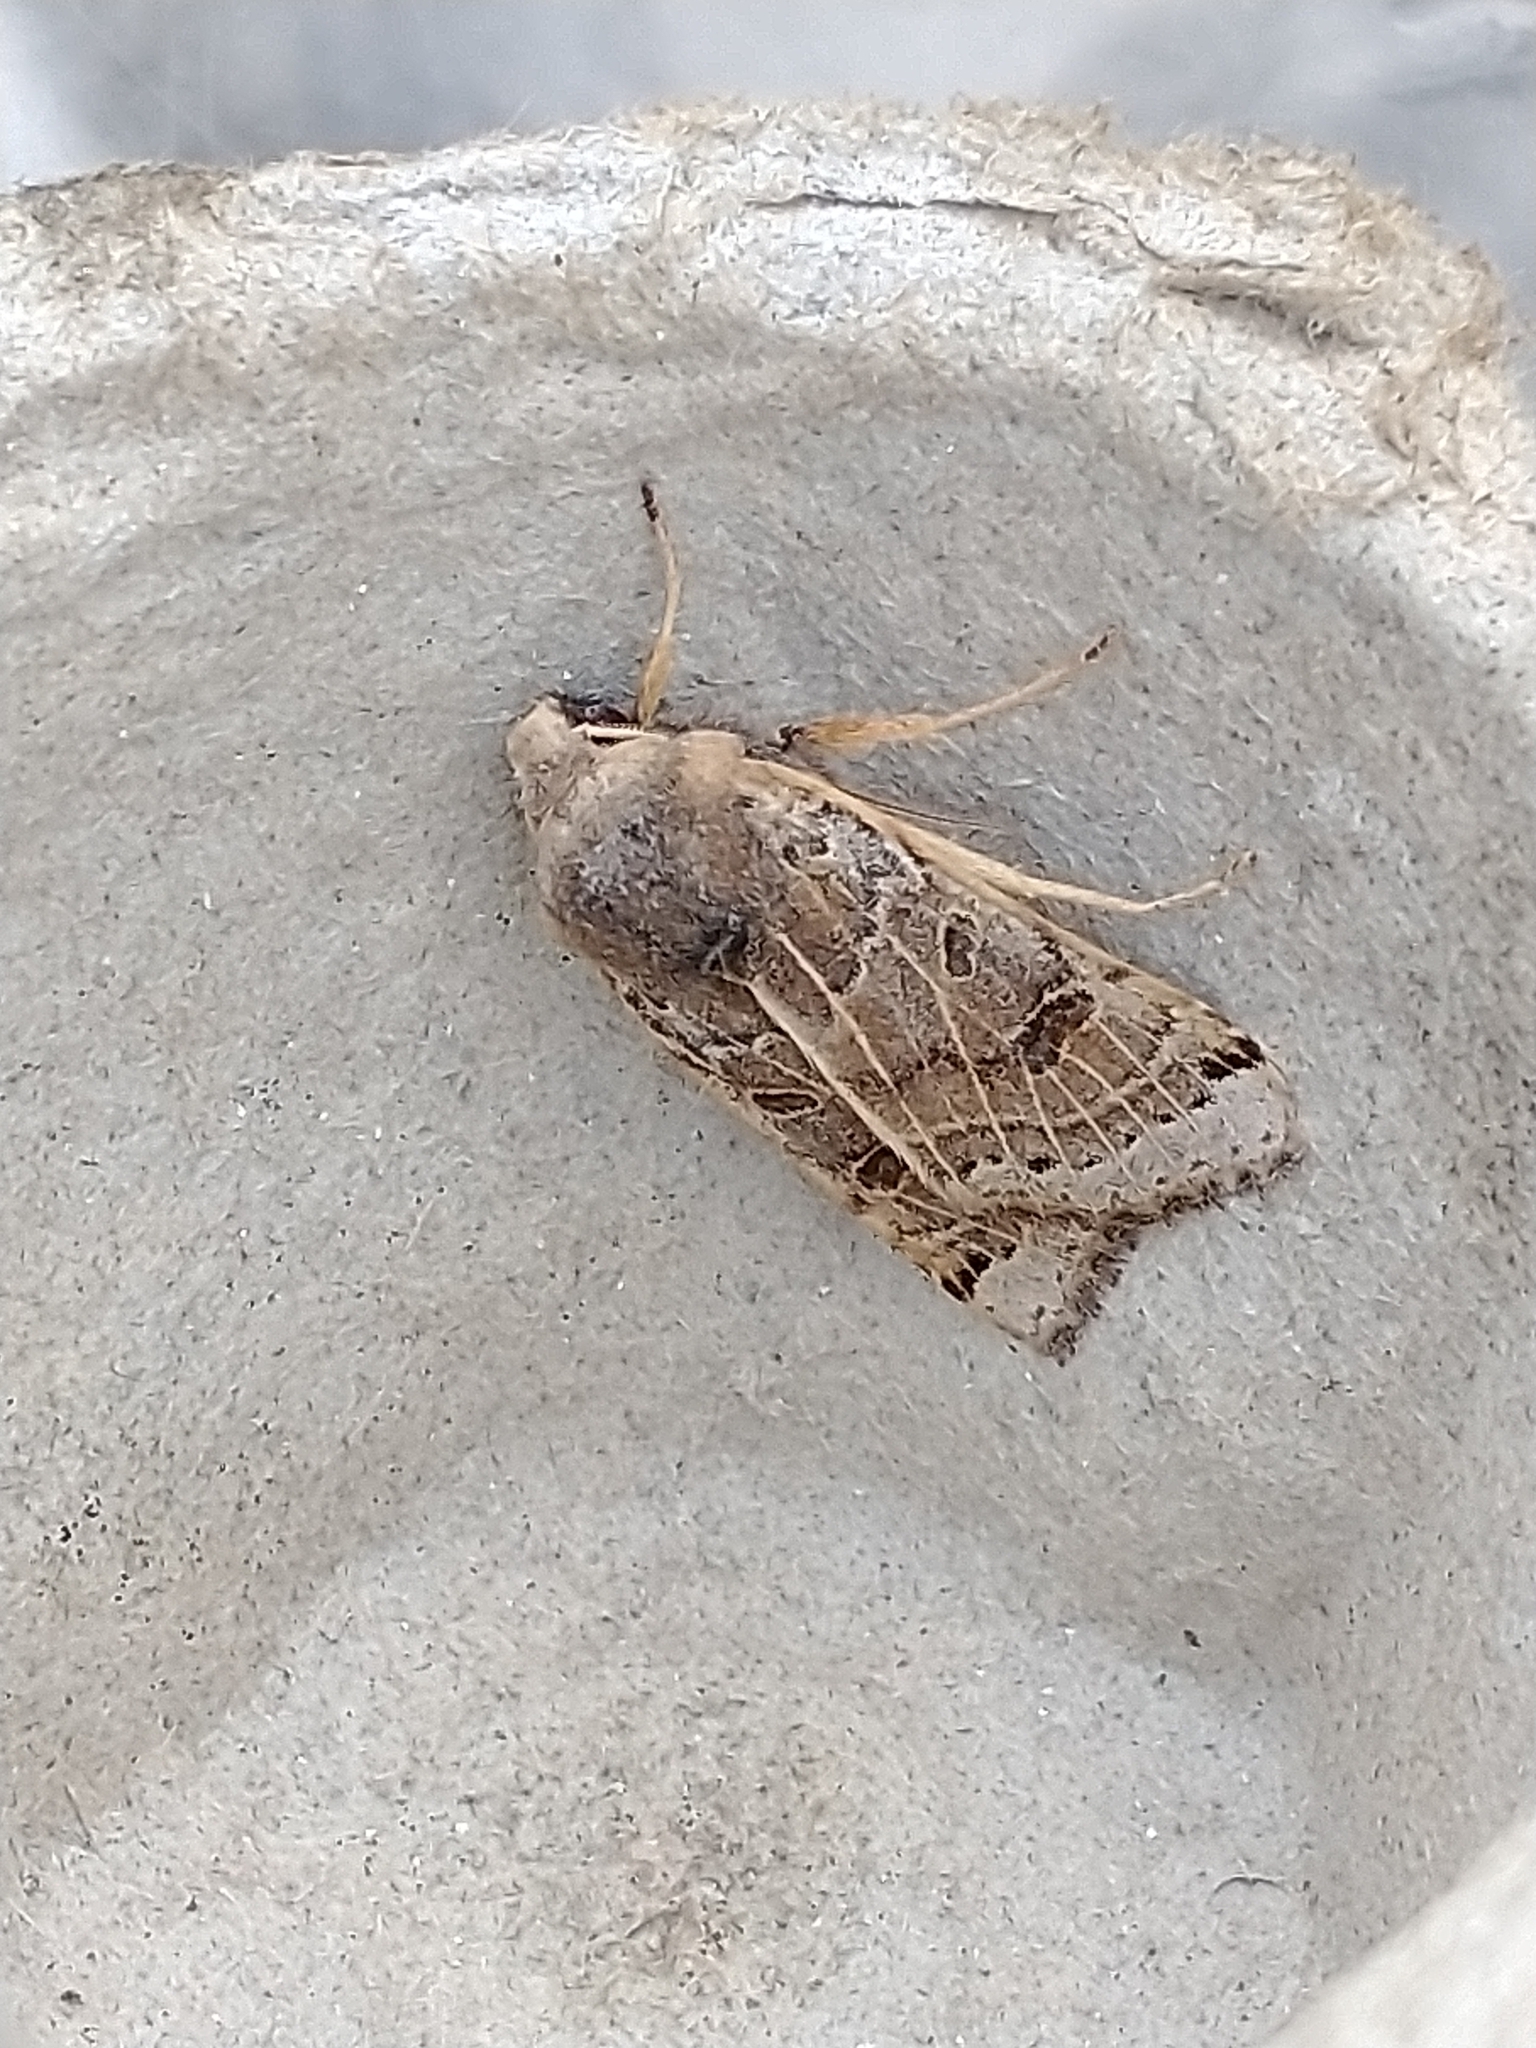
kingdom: Animalia
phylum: Arthropoda
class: Insecta
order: Lepidoptera
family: Noctuidae
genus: Agrochola
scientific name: Agrochola lunosa
